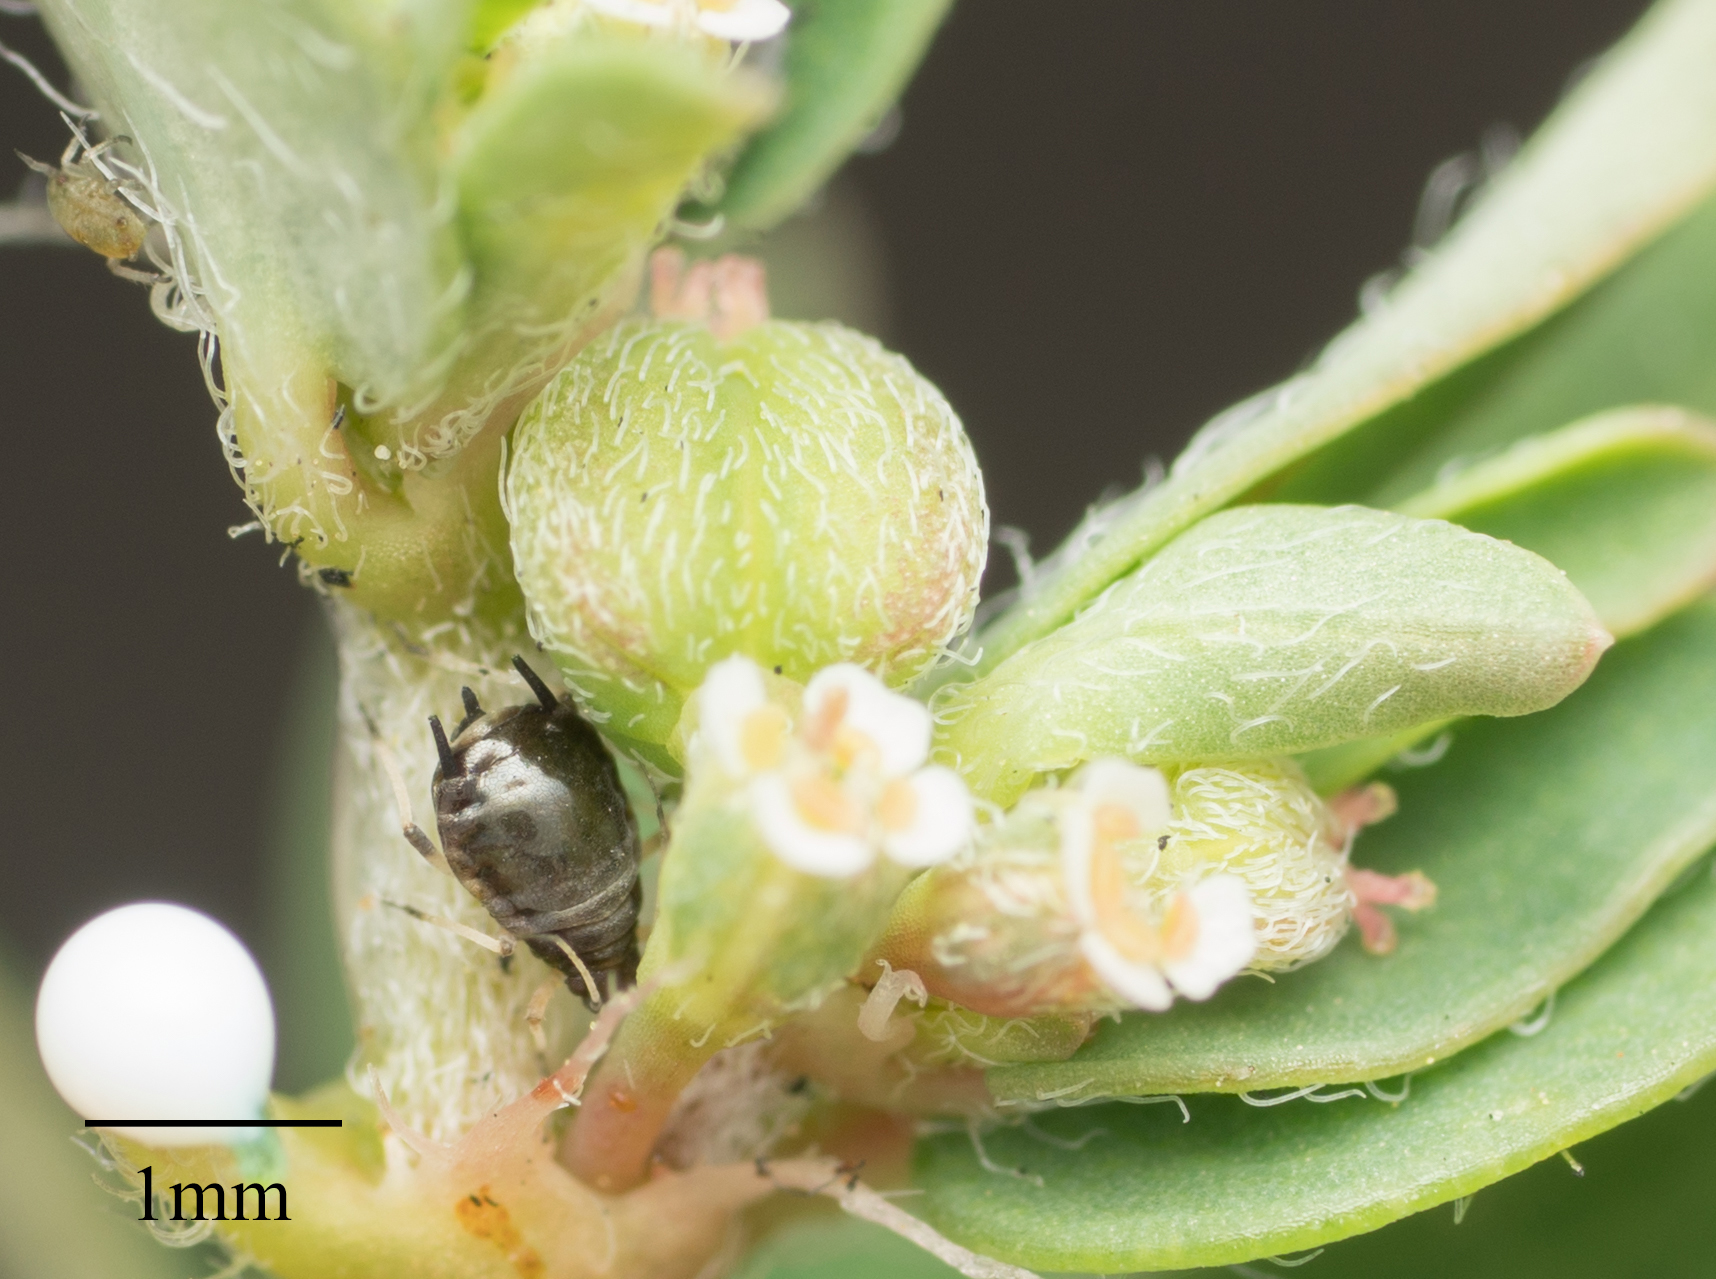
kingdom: Animalia
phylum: Arthropoda
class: Insecta
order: Hemiptera
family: Aphididae
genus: Aphis
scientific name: Aphis craccivora
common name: Cowpea aphid
